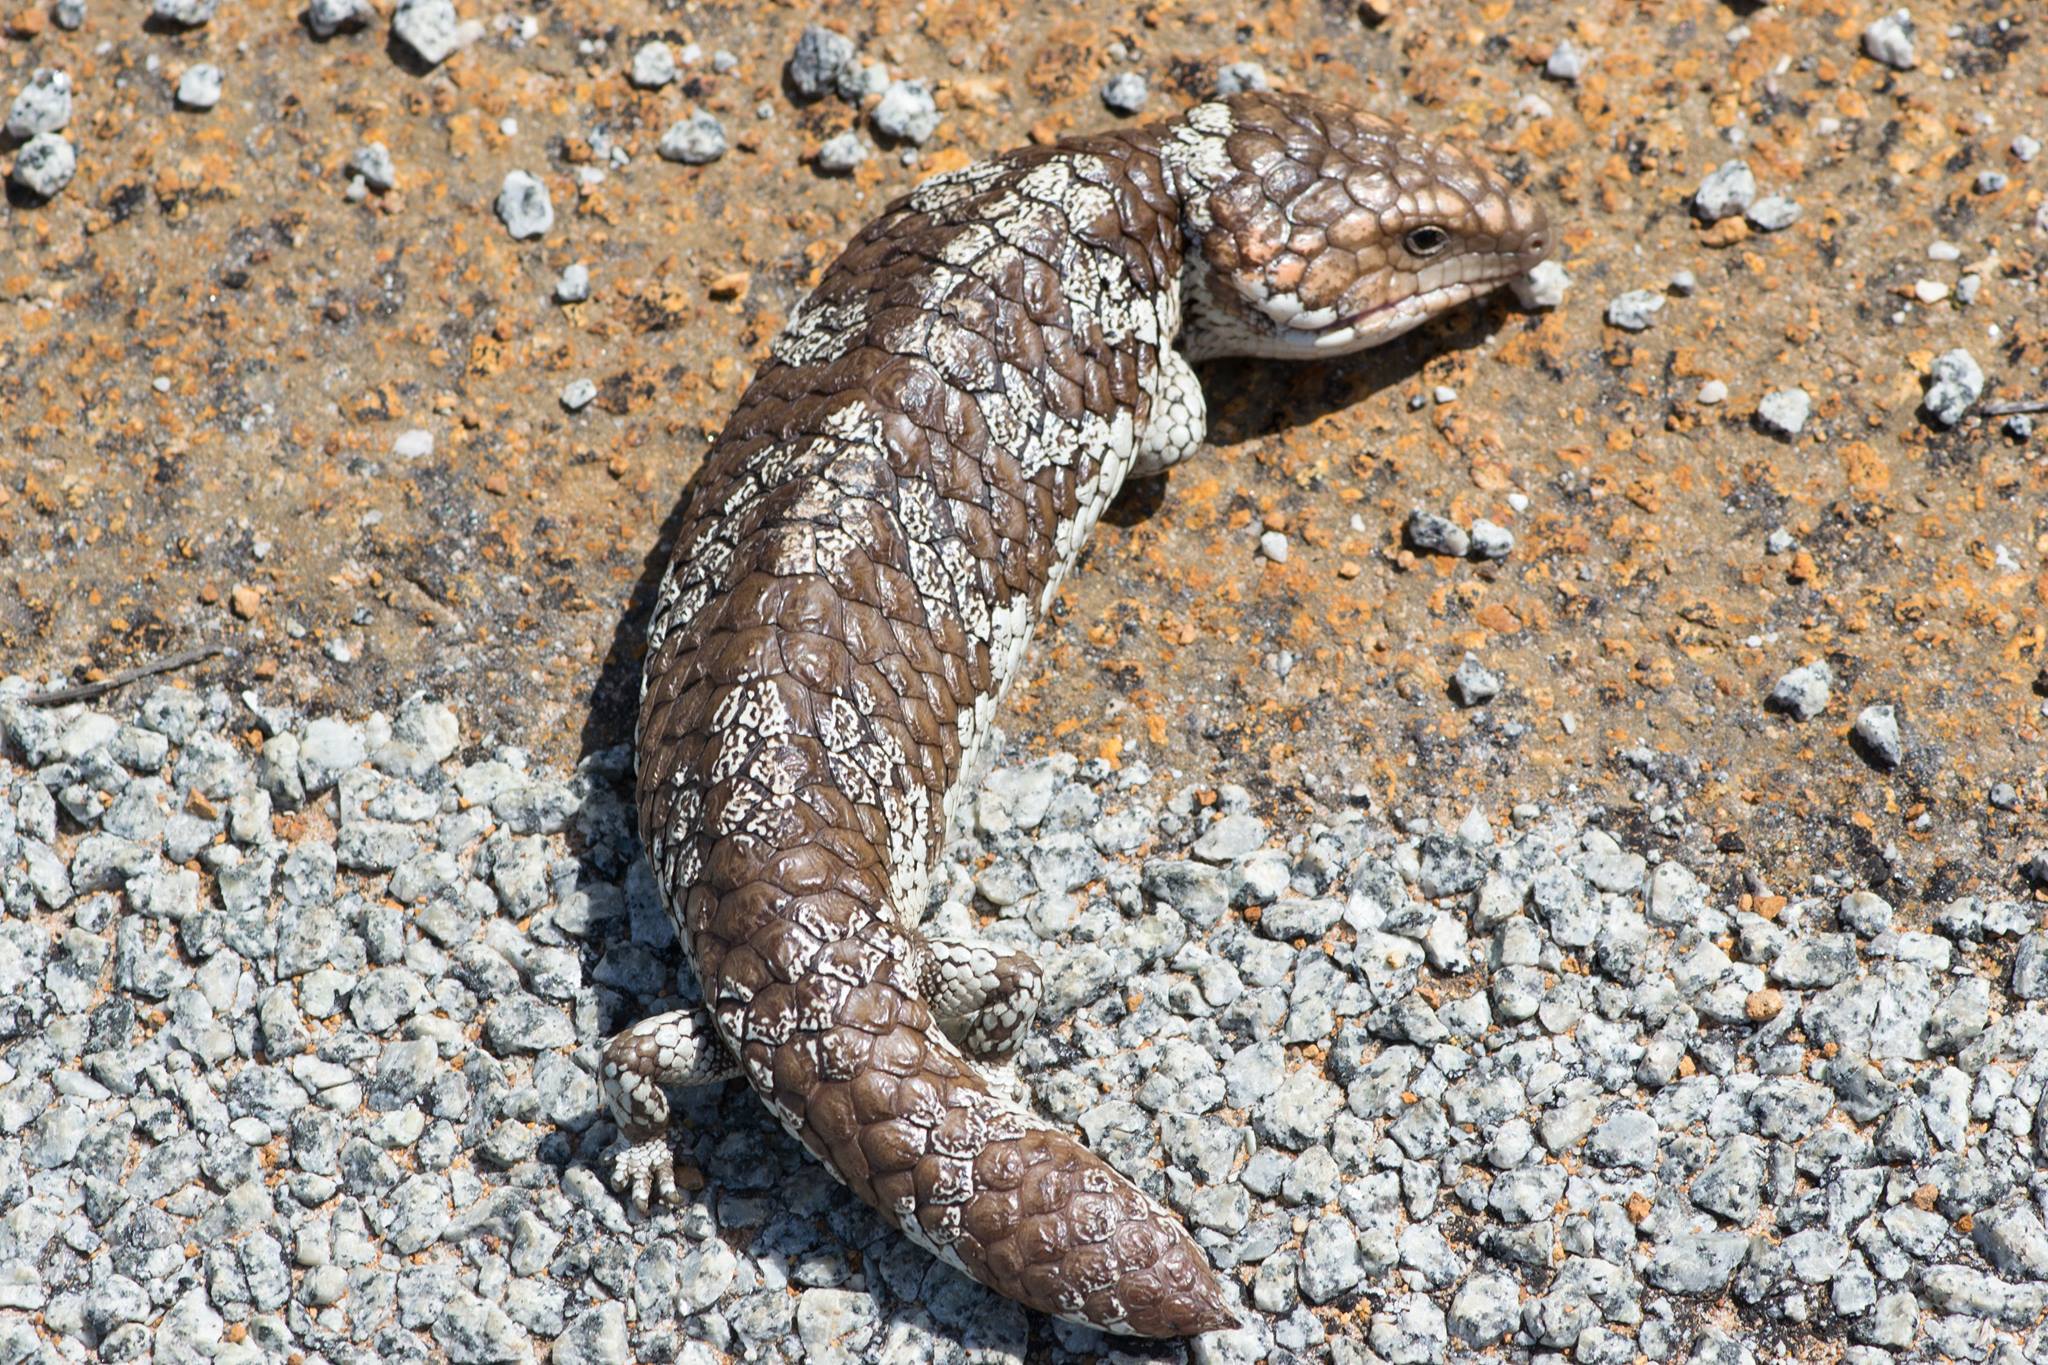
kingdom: Animalia
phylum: Chordata
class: Squamata
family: Scincidae
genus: Tiliqua
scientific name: Tiliqua rugosa
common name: Pinecone lizard
